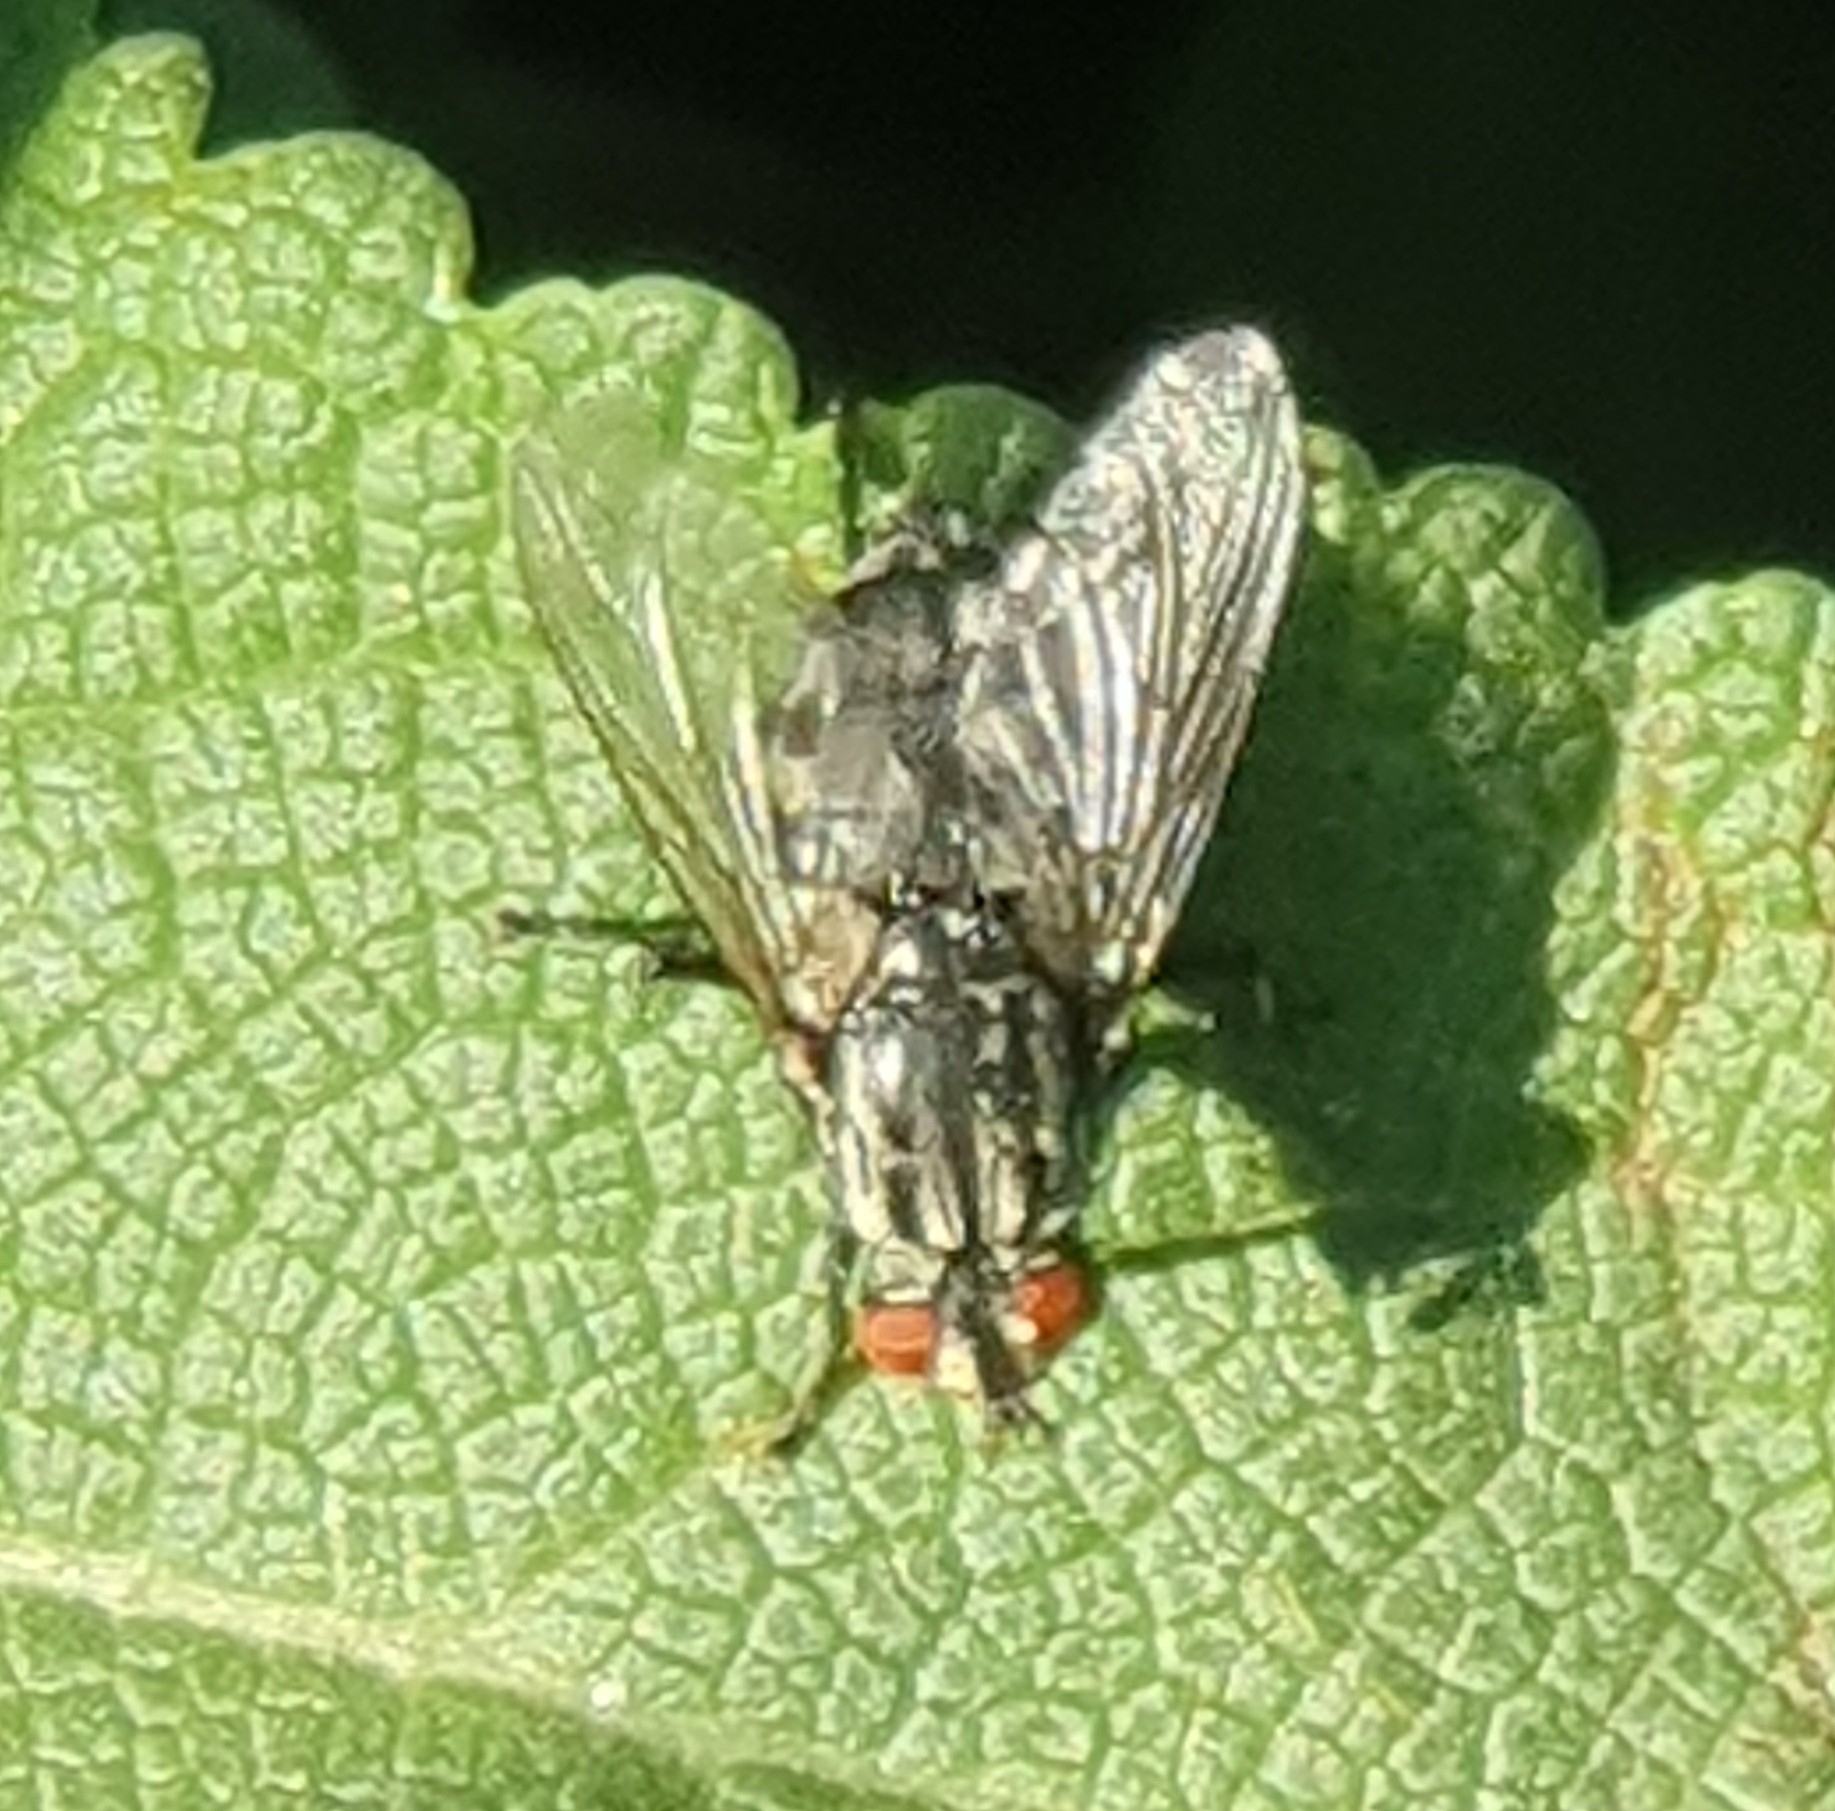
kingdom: Animalia
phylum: Arthropoda
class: Insecta
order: Diptera
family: Sarcophagidae
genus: Sarcophaga
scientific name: Sarcophaga
